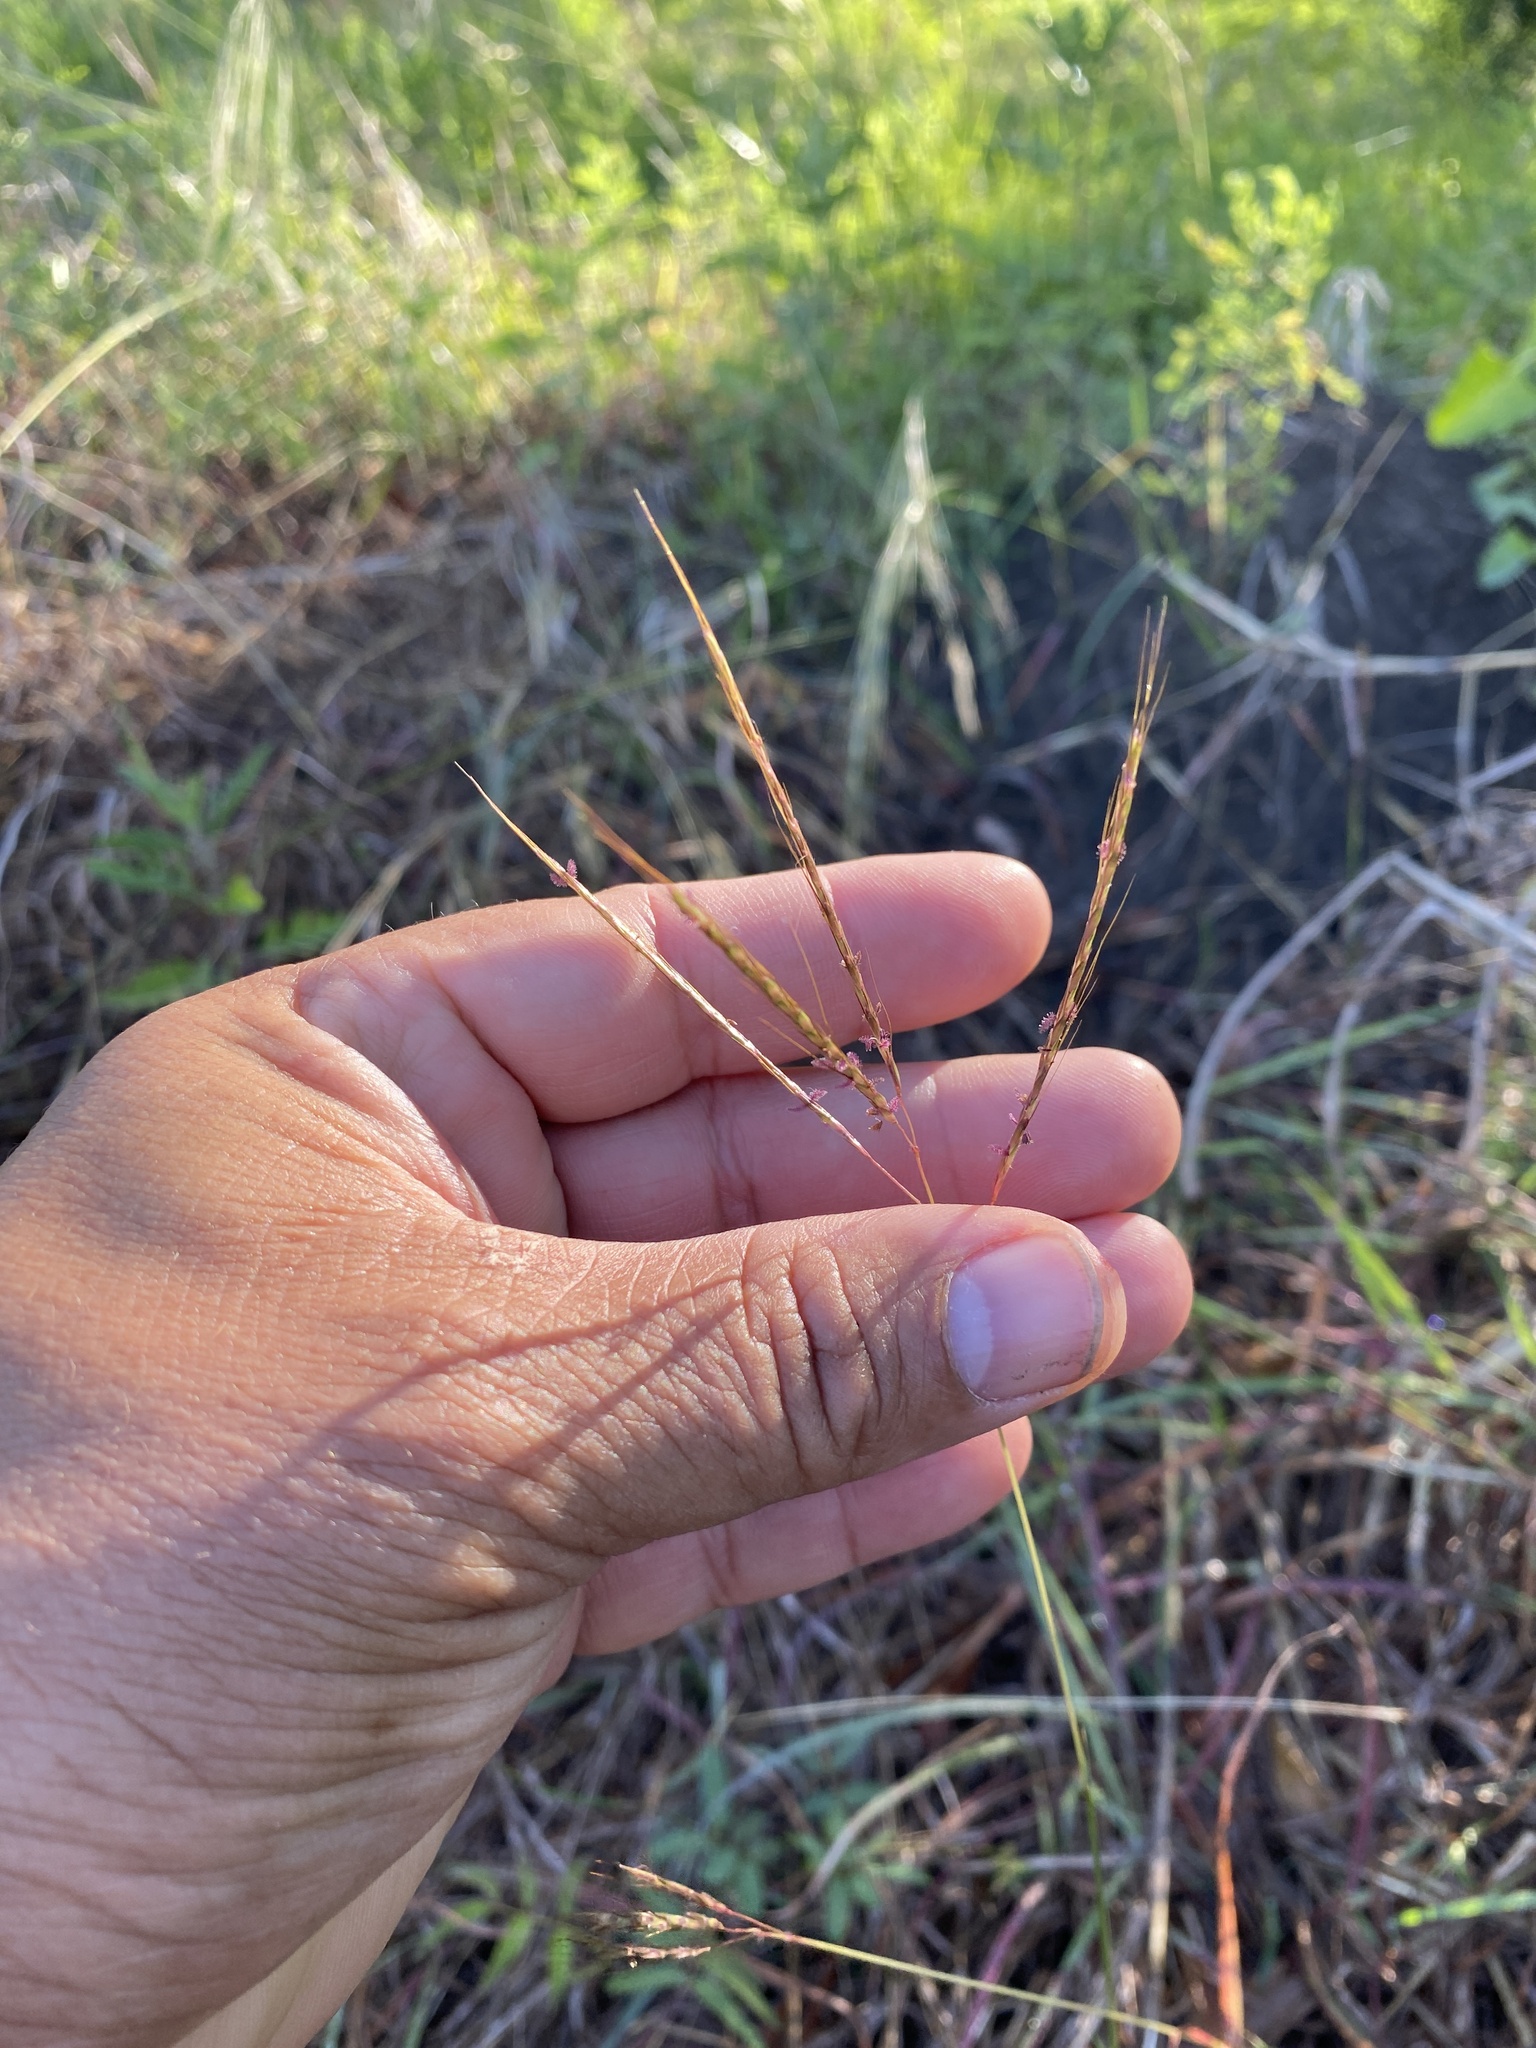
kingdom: Plantae
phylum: Tracheophyta
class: Liliopsida
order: Poales
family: Poaceae
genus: Bothriochloa
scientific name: Bothriochloa ischaemum
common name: Yellow bluestem
